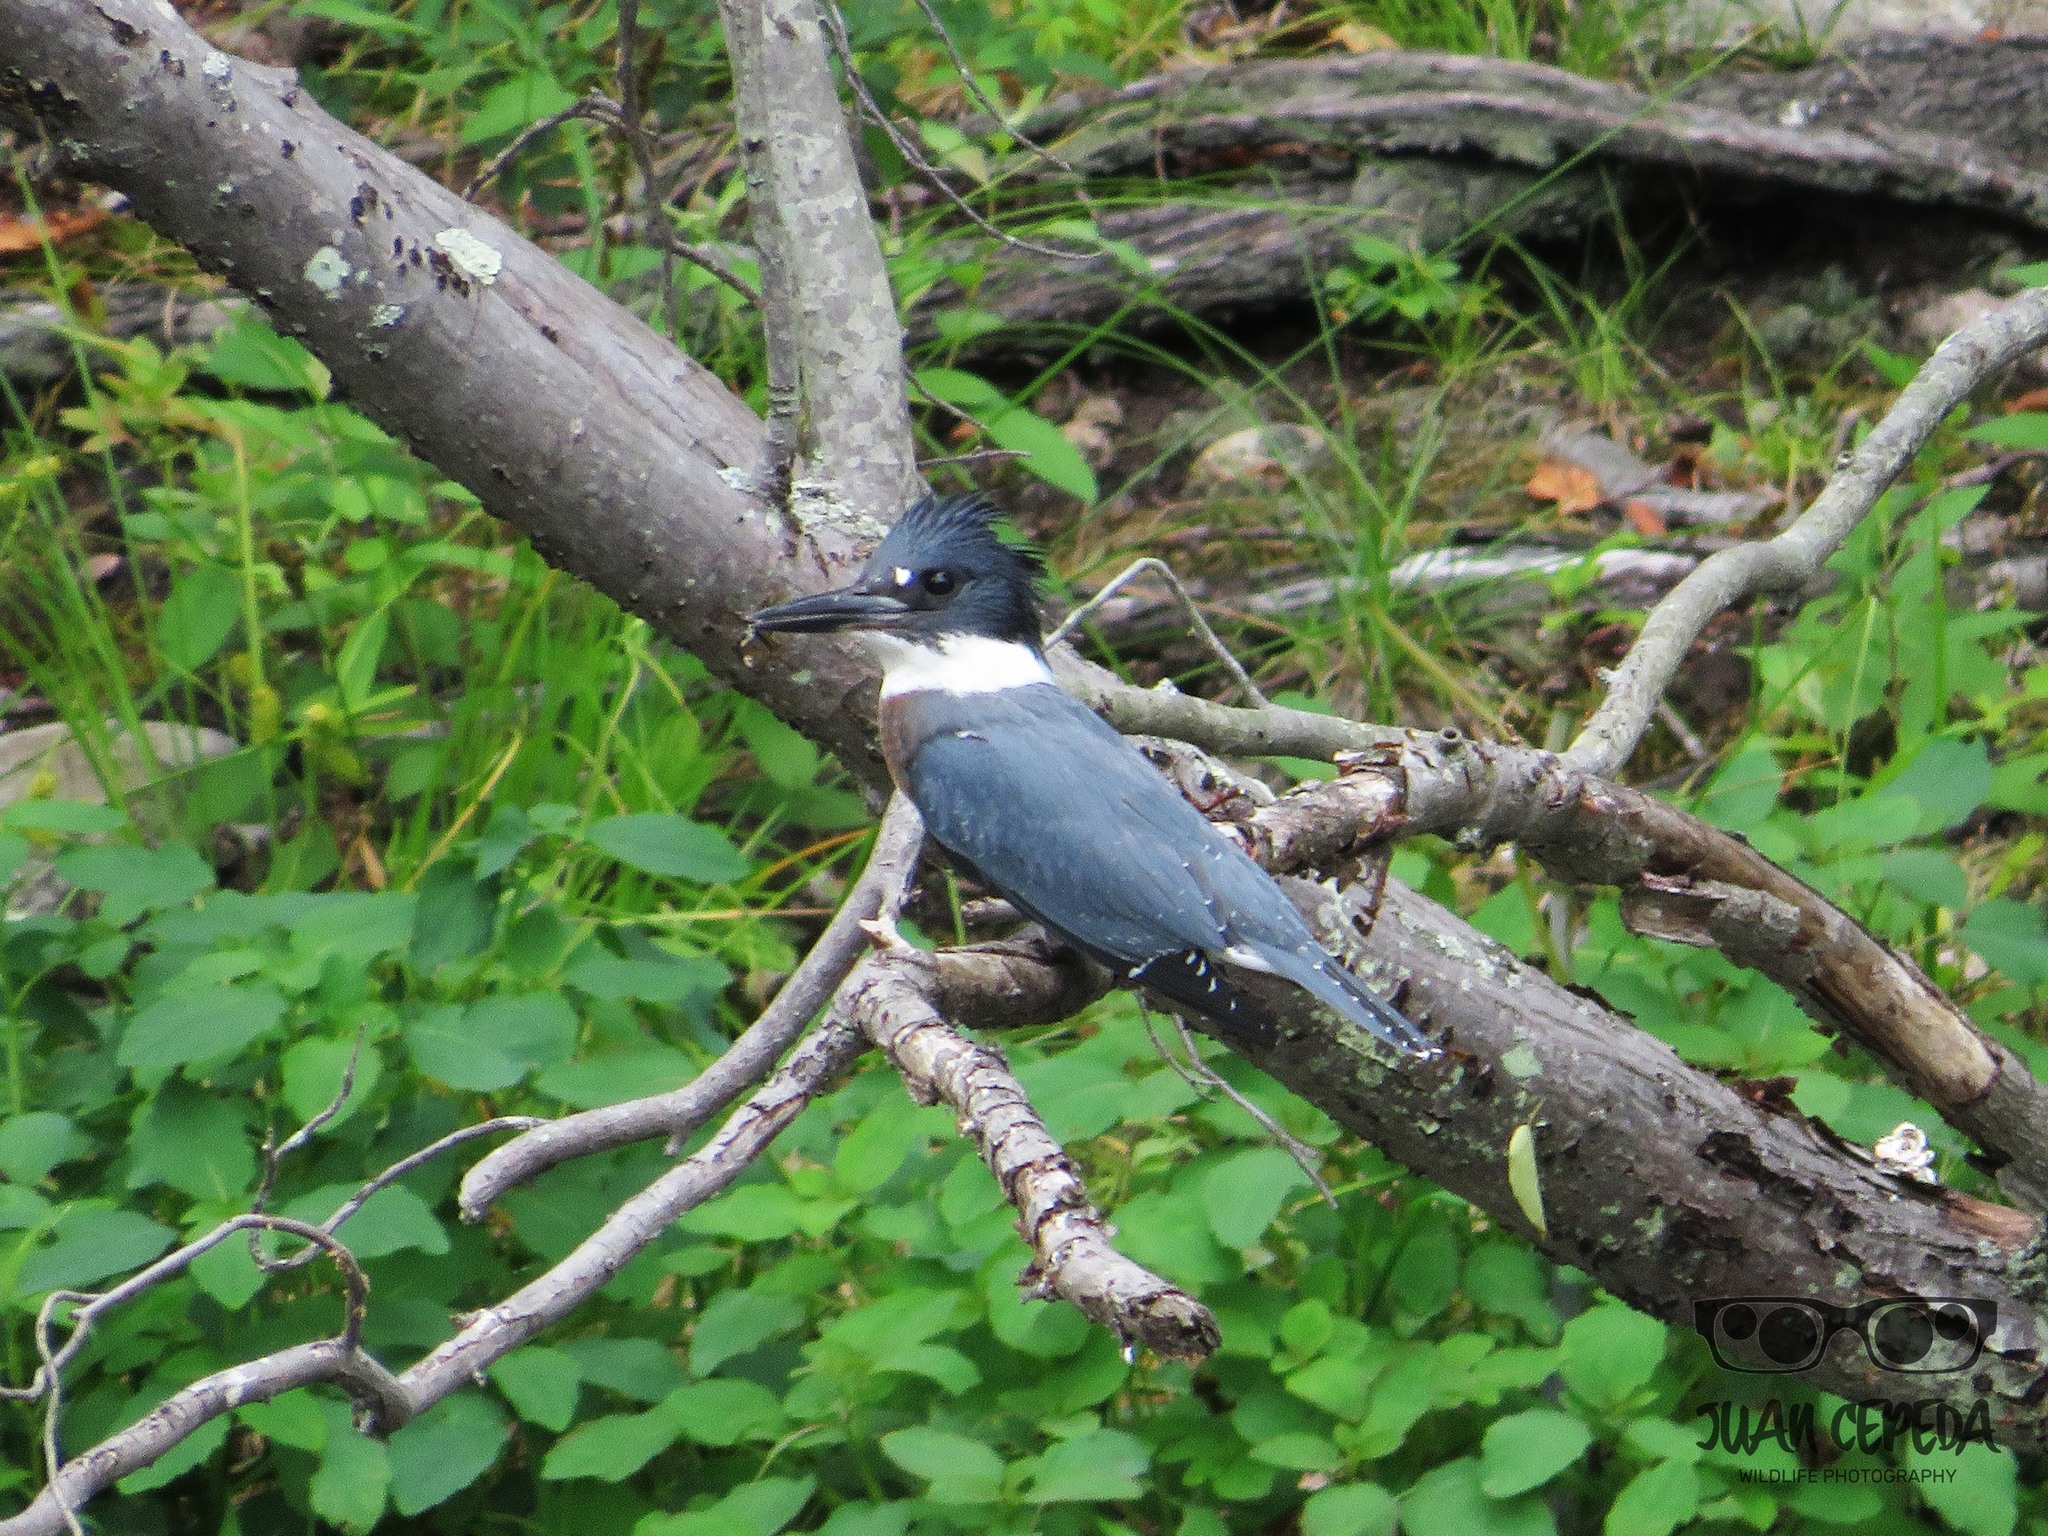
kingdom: Animalia
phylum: Chordata
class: Aves
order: Coraciiformes
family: Alcedinidae
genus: Megaceryle
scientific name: Megaceryle alcyon
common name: Belted kingfisher
